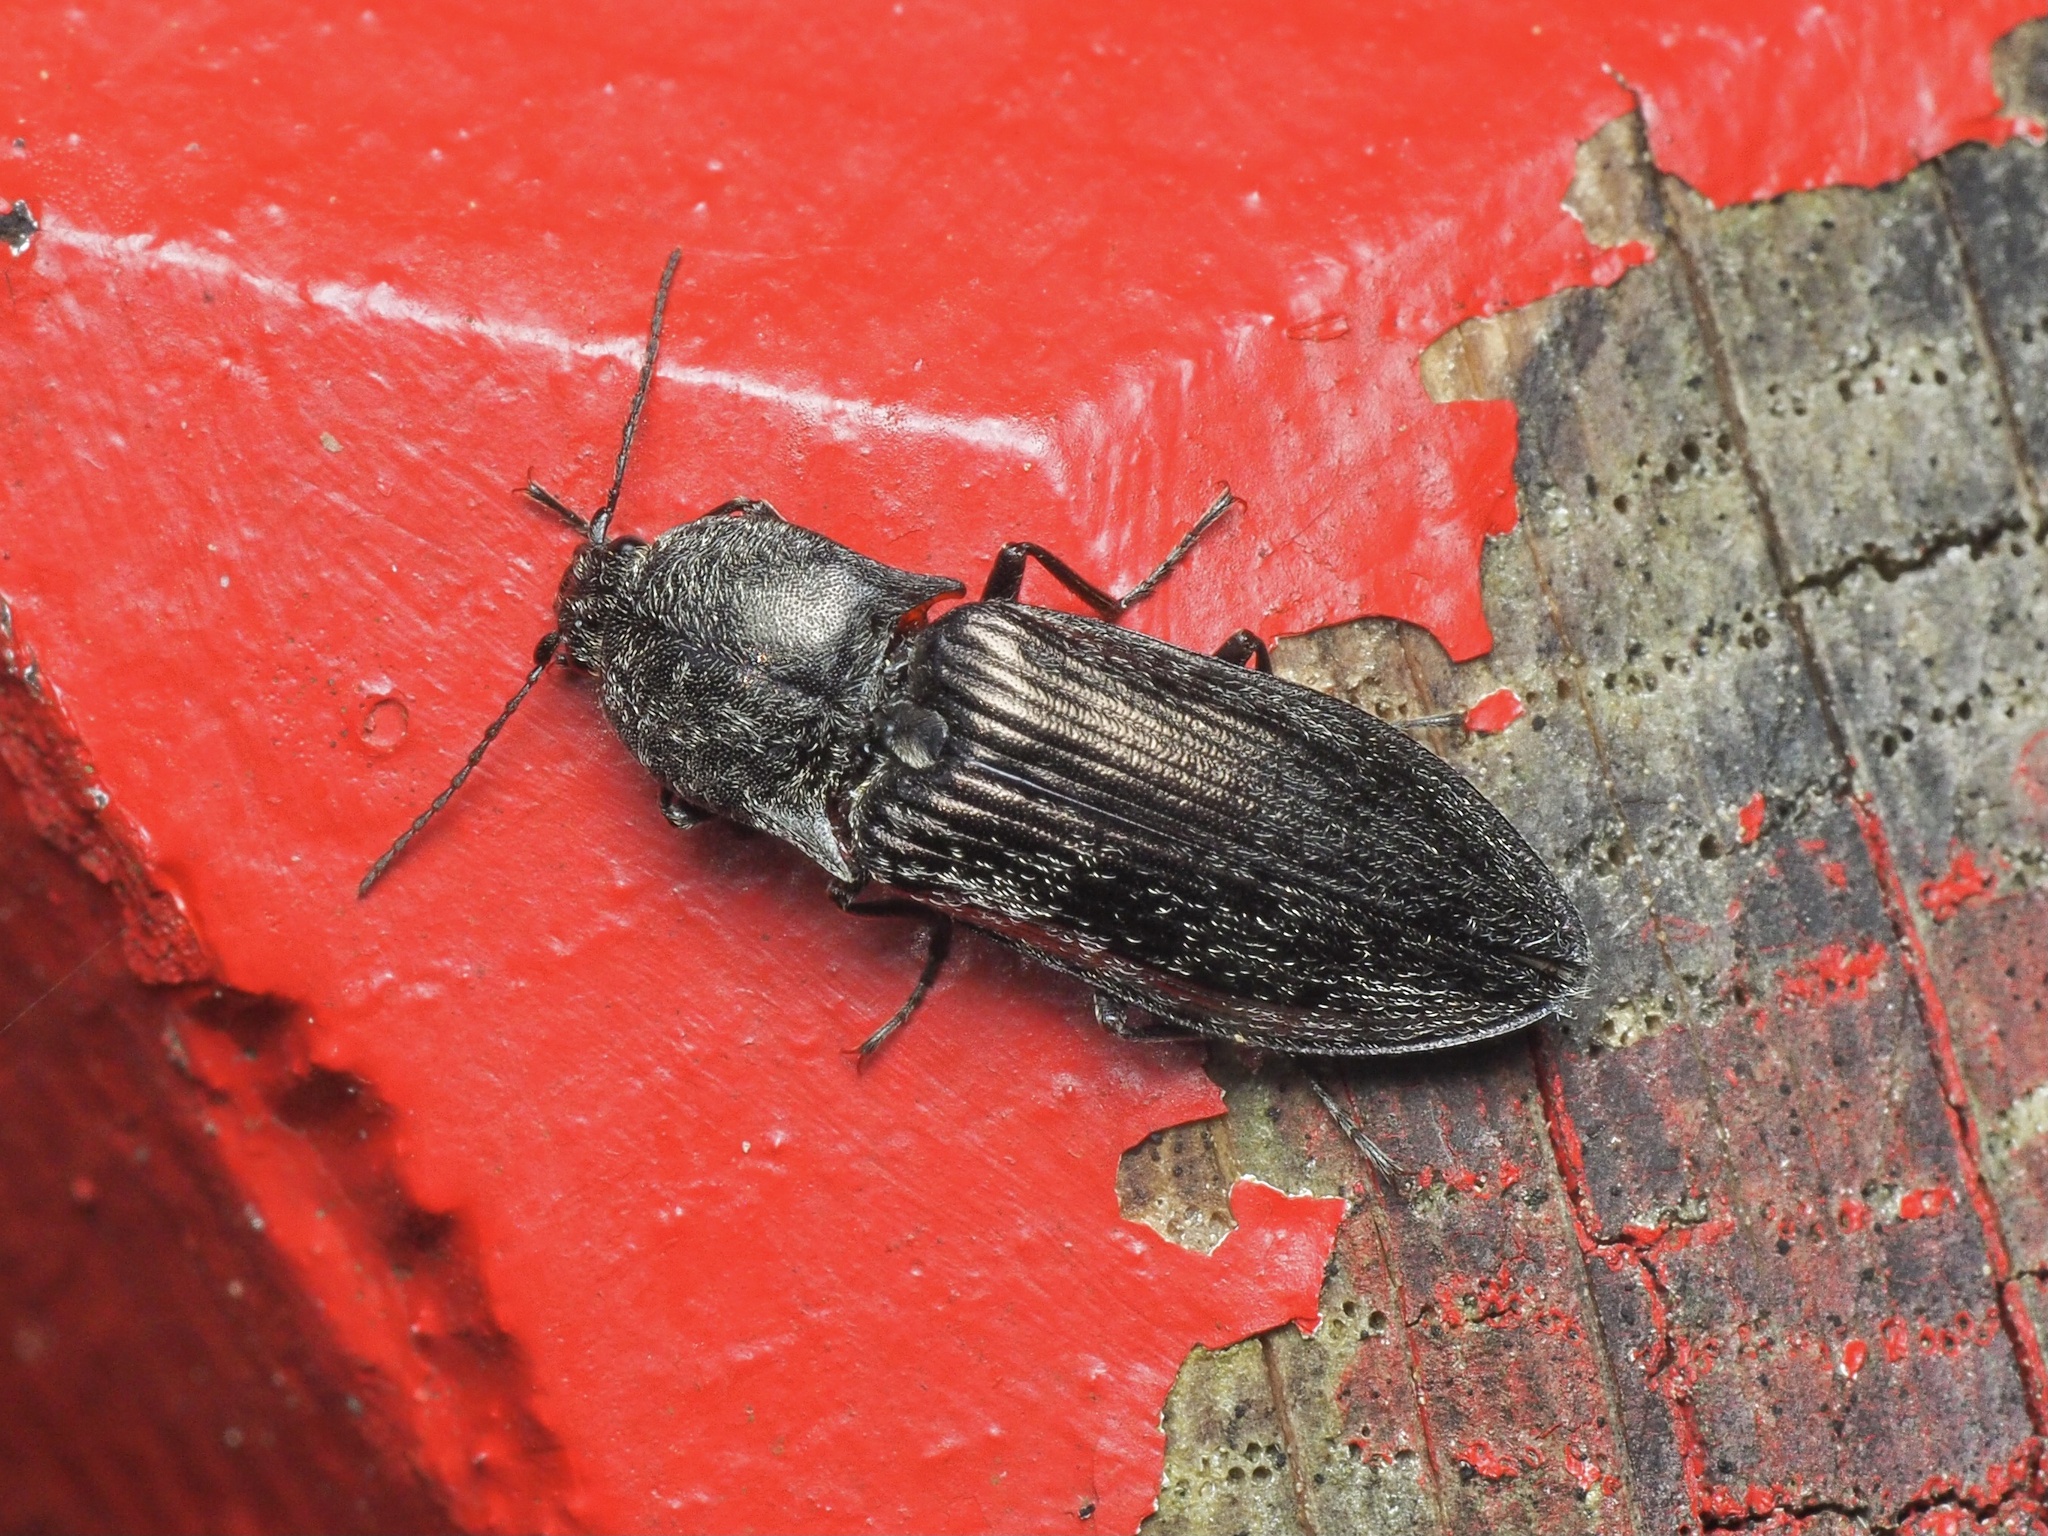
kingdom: Animalia
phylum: Arthropoda
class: Insecta
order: Coleoptera
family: Elateridae
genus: Paraphotistus
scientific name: Paraphotistus impressus
